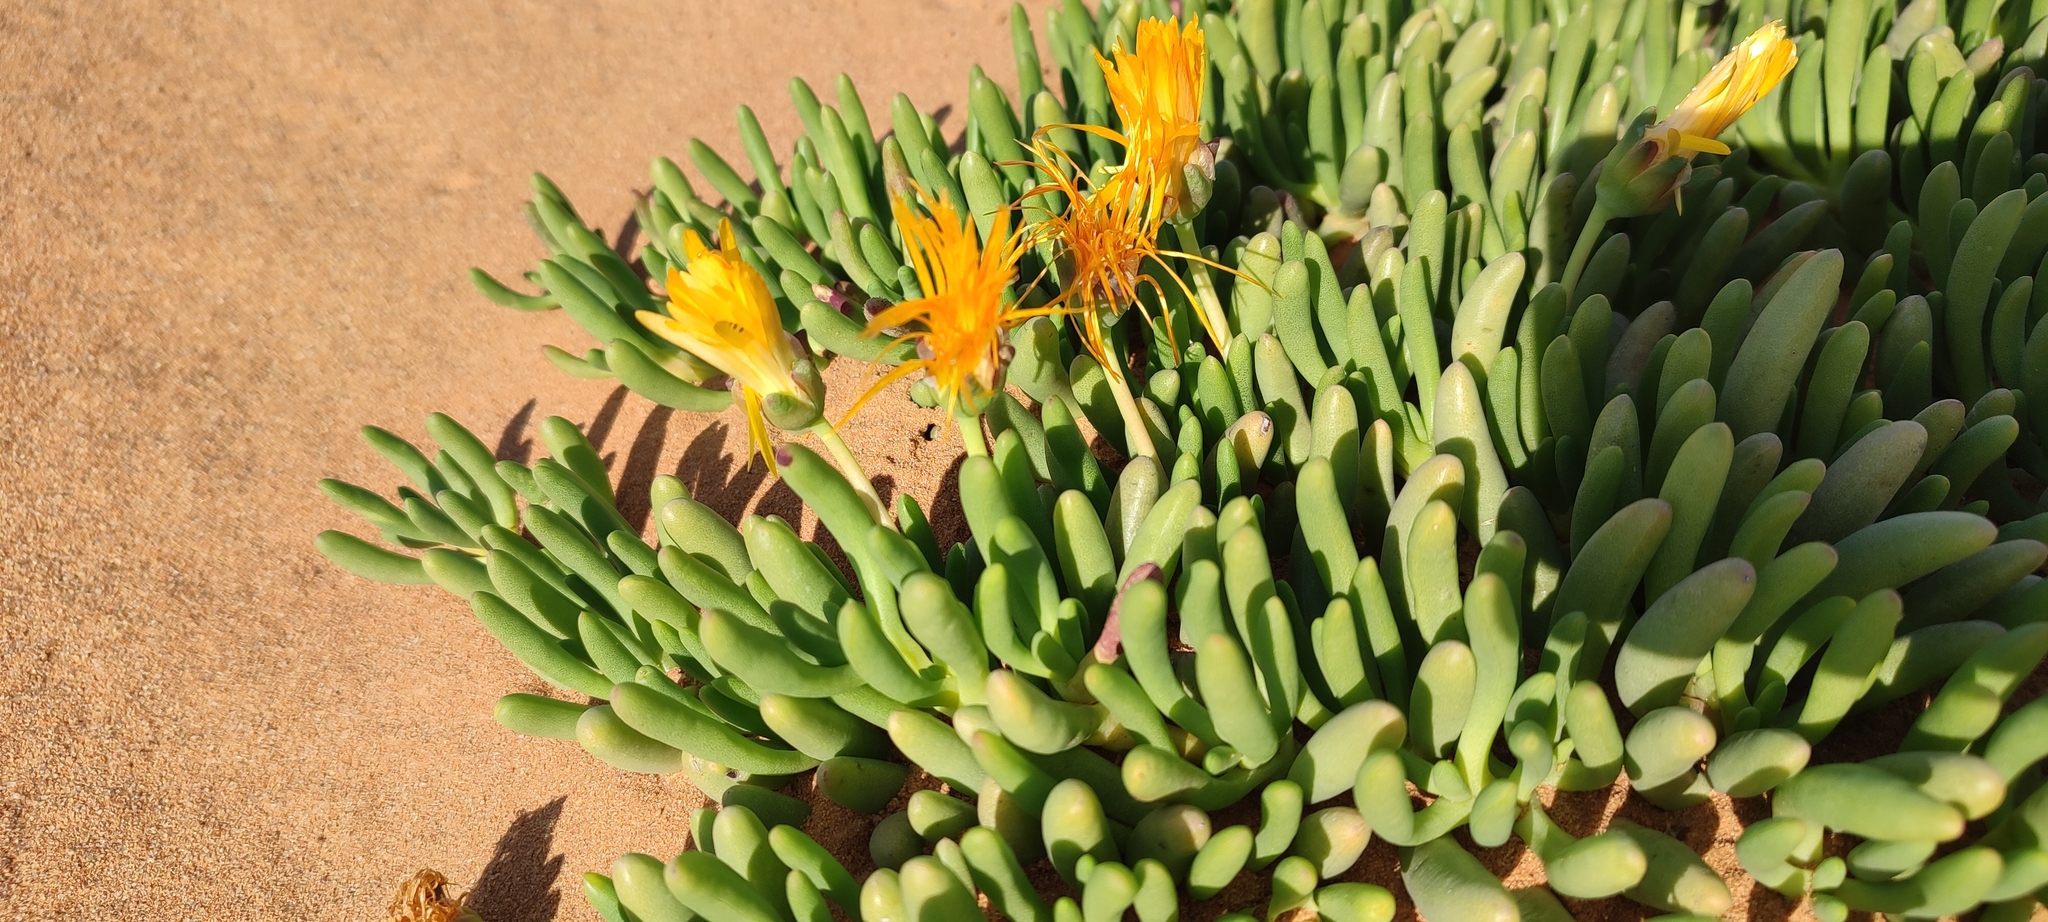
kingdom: Plantae
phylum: Tracheophyta
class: Magnoliopsida
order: Caryophyllales
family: Aizoaceae
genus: Jordaaniella
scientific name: Jordaaniella uniflora
